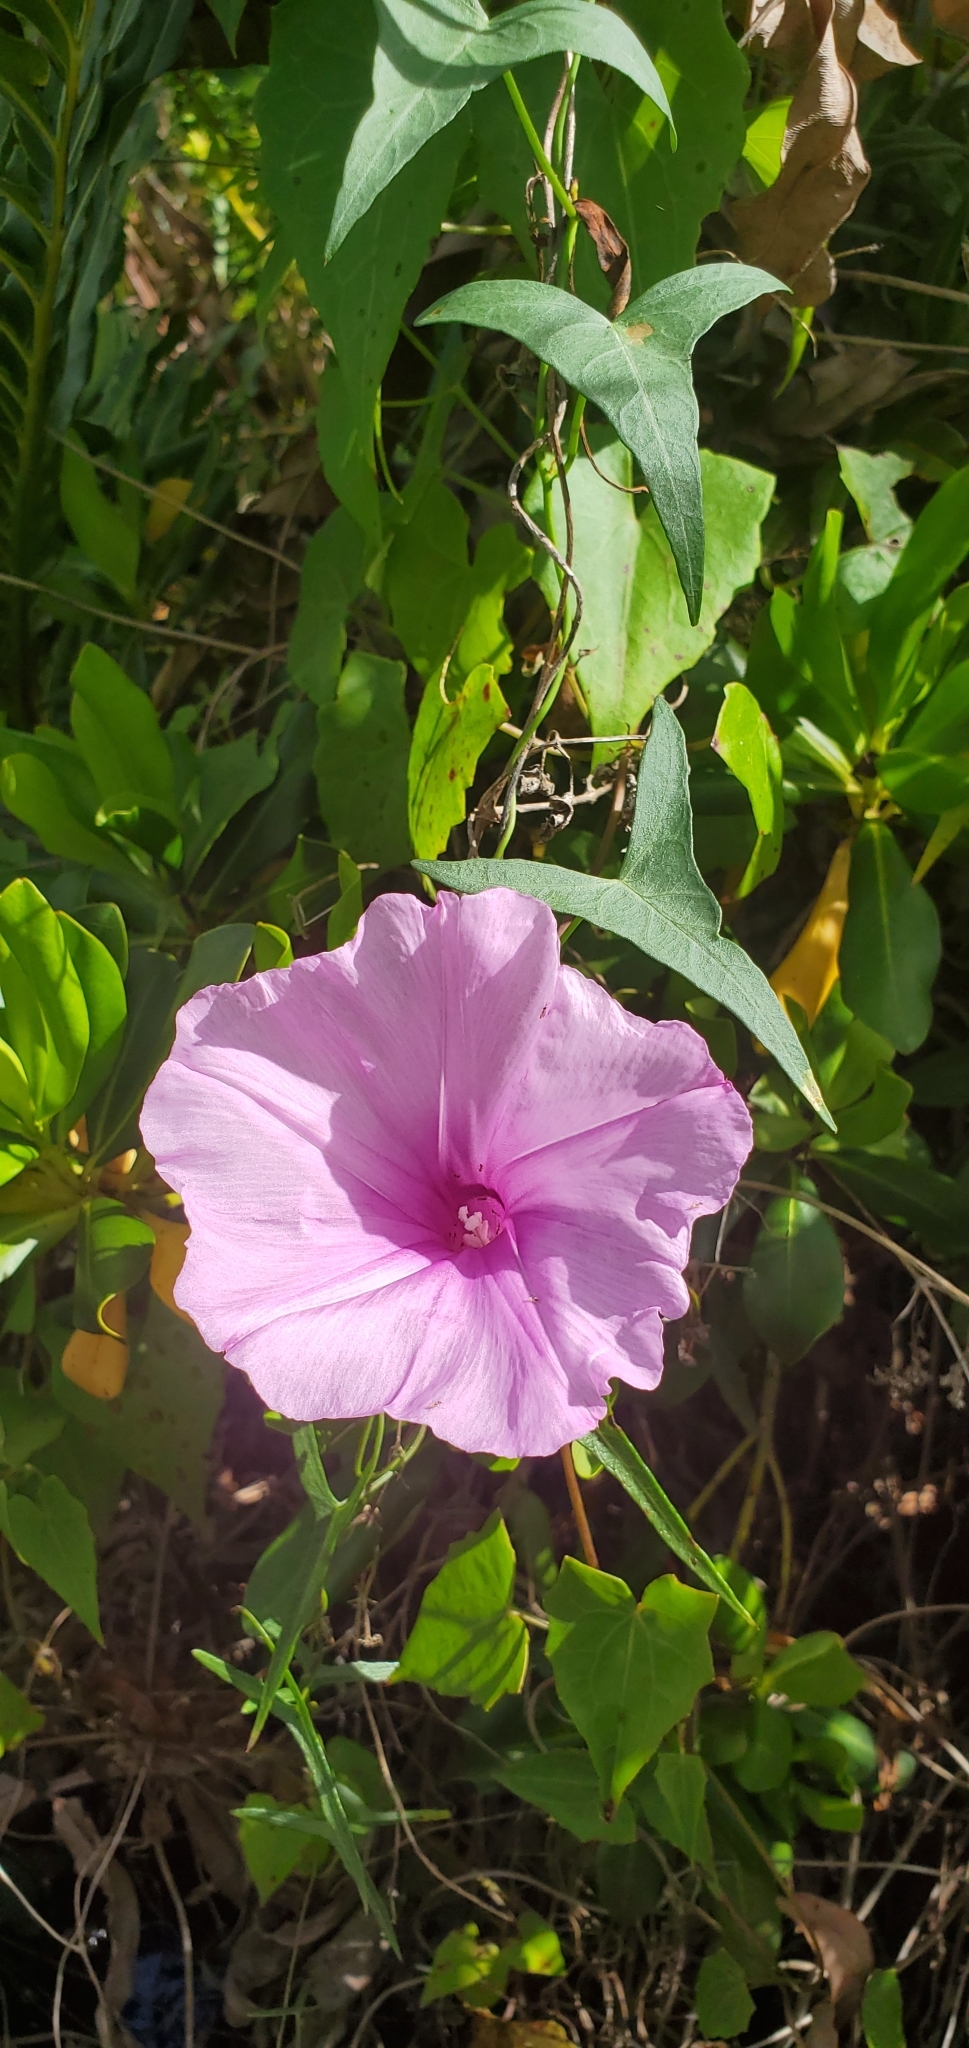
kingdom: Plantae
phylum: Tracheophyta
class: Magnoliopsida
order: Solanales
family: Convolvulaceae
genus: Ipomoea
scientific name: Ipomoea sagittata
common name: Saltmarsh morning glory
